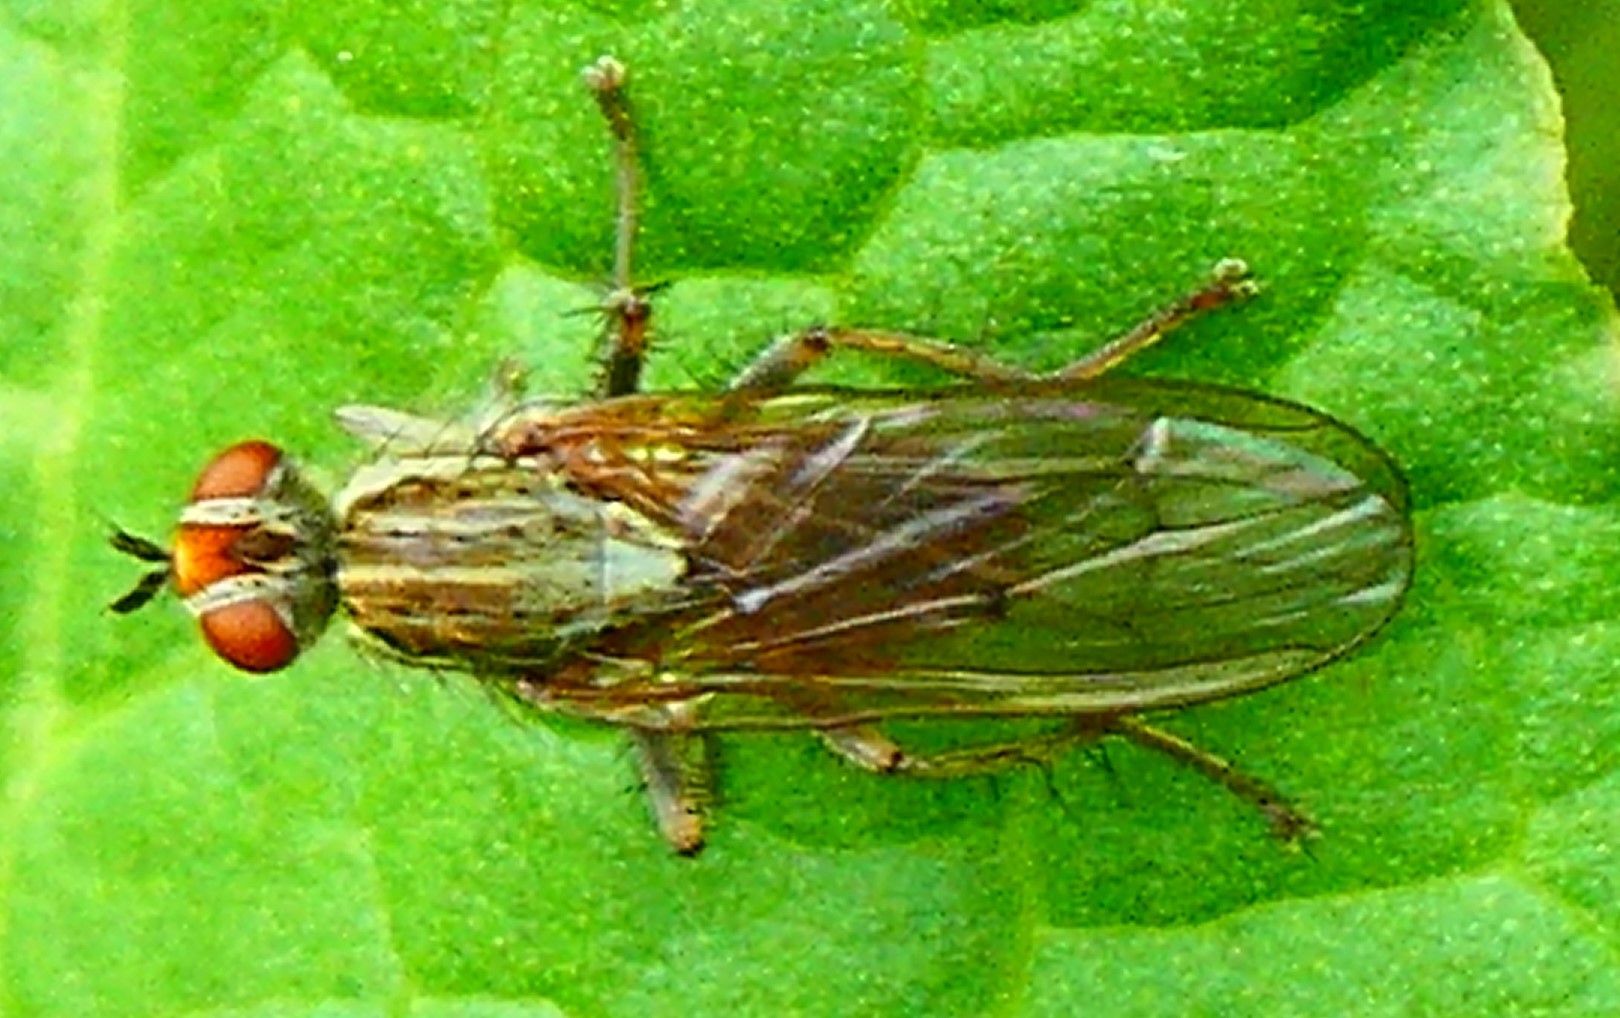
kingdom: Animalia
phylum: Arthropoda
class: Insecta
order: Diptera
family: Scathophagidae
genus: Scathophaga
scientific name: Scathophaga stercoraria
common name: Yellow dung fly
